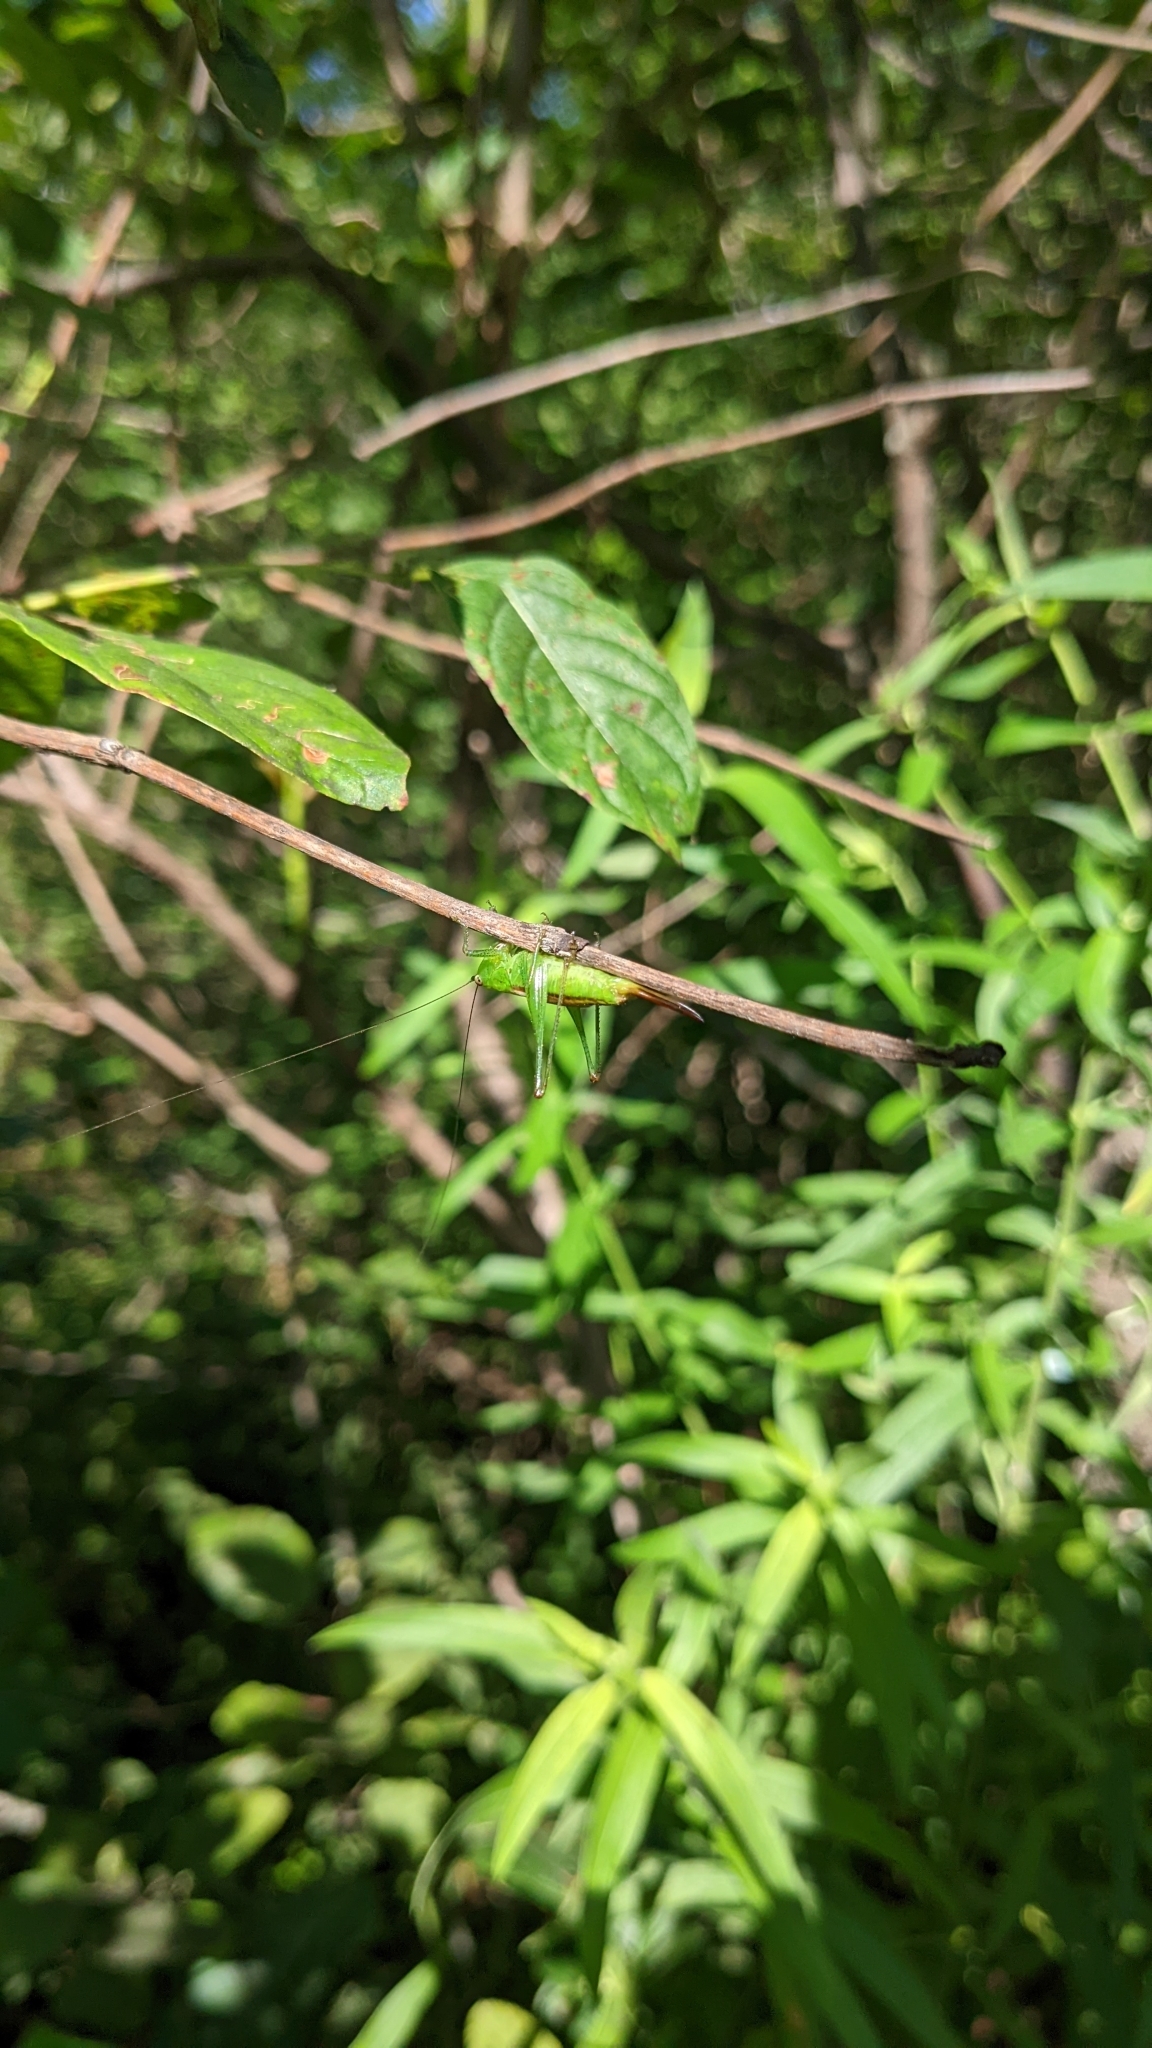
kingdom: Animalia
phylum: Arthropoda
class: Insecta
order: Orthoptera
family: Tettigoniidae
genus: Conocephalus
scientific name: Conocephalus brevipennis
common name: Short-winged meadow katydid
